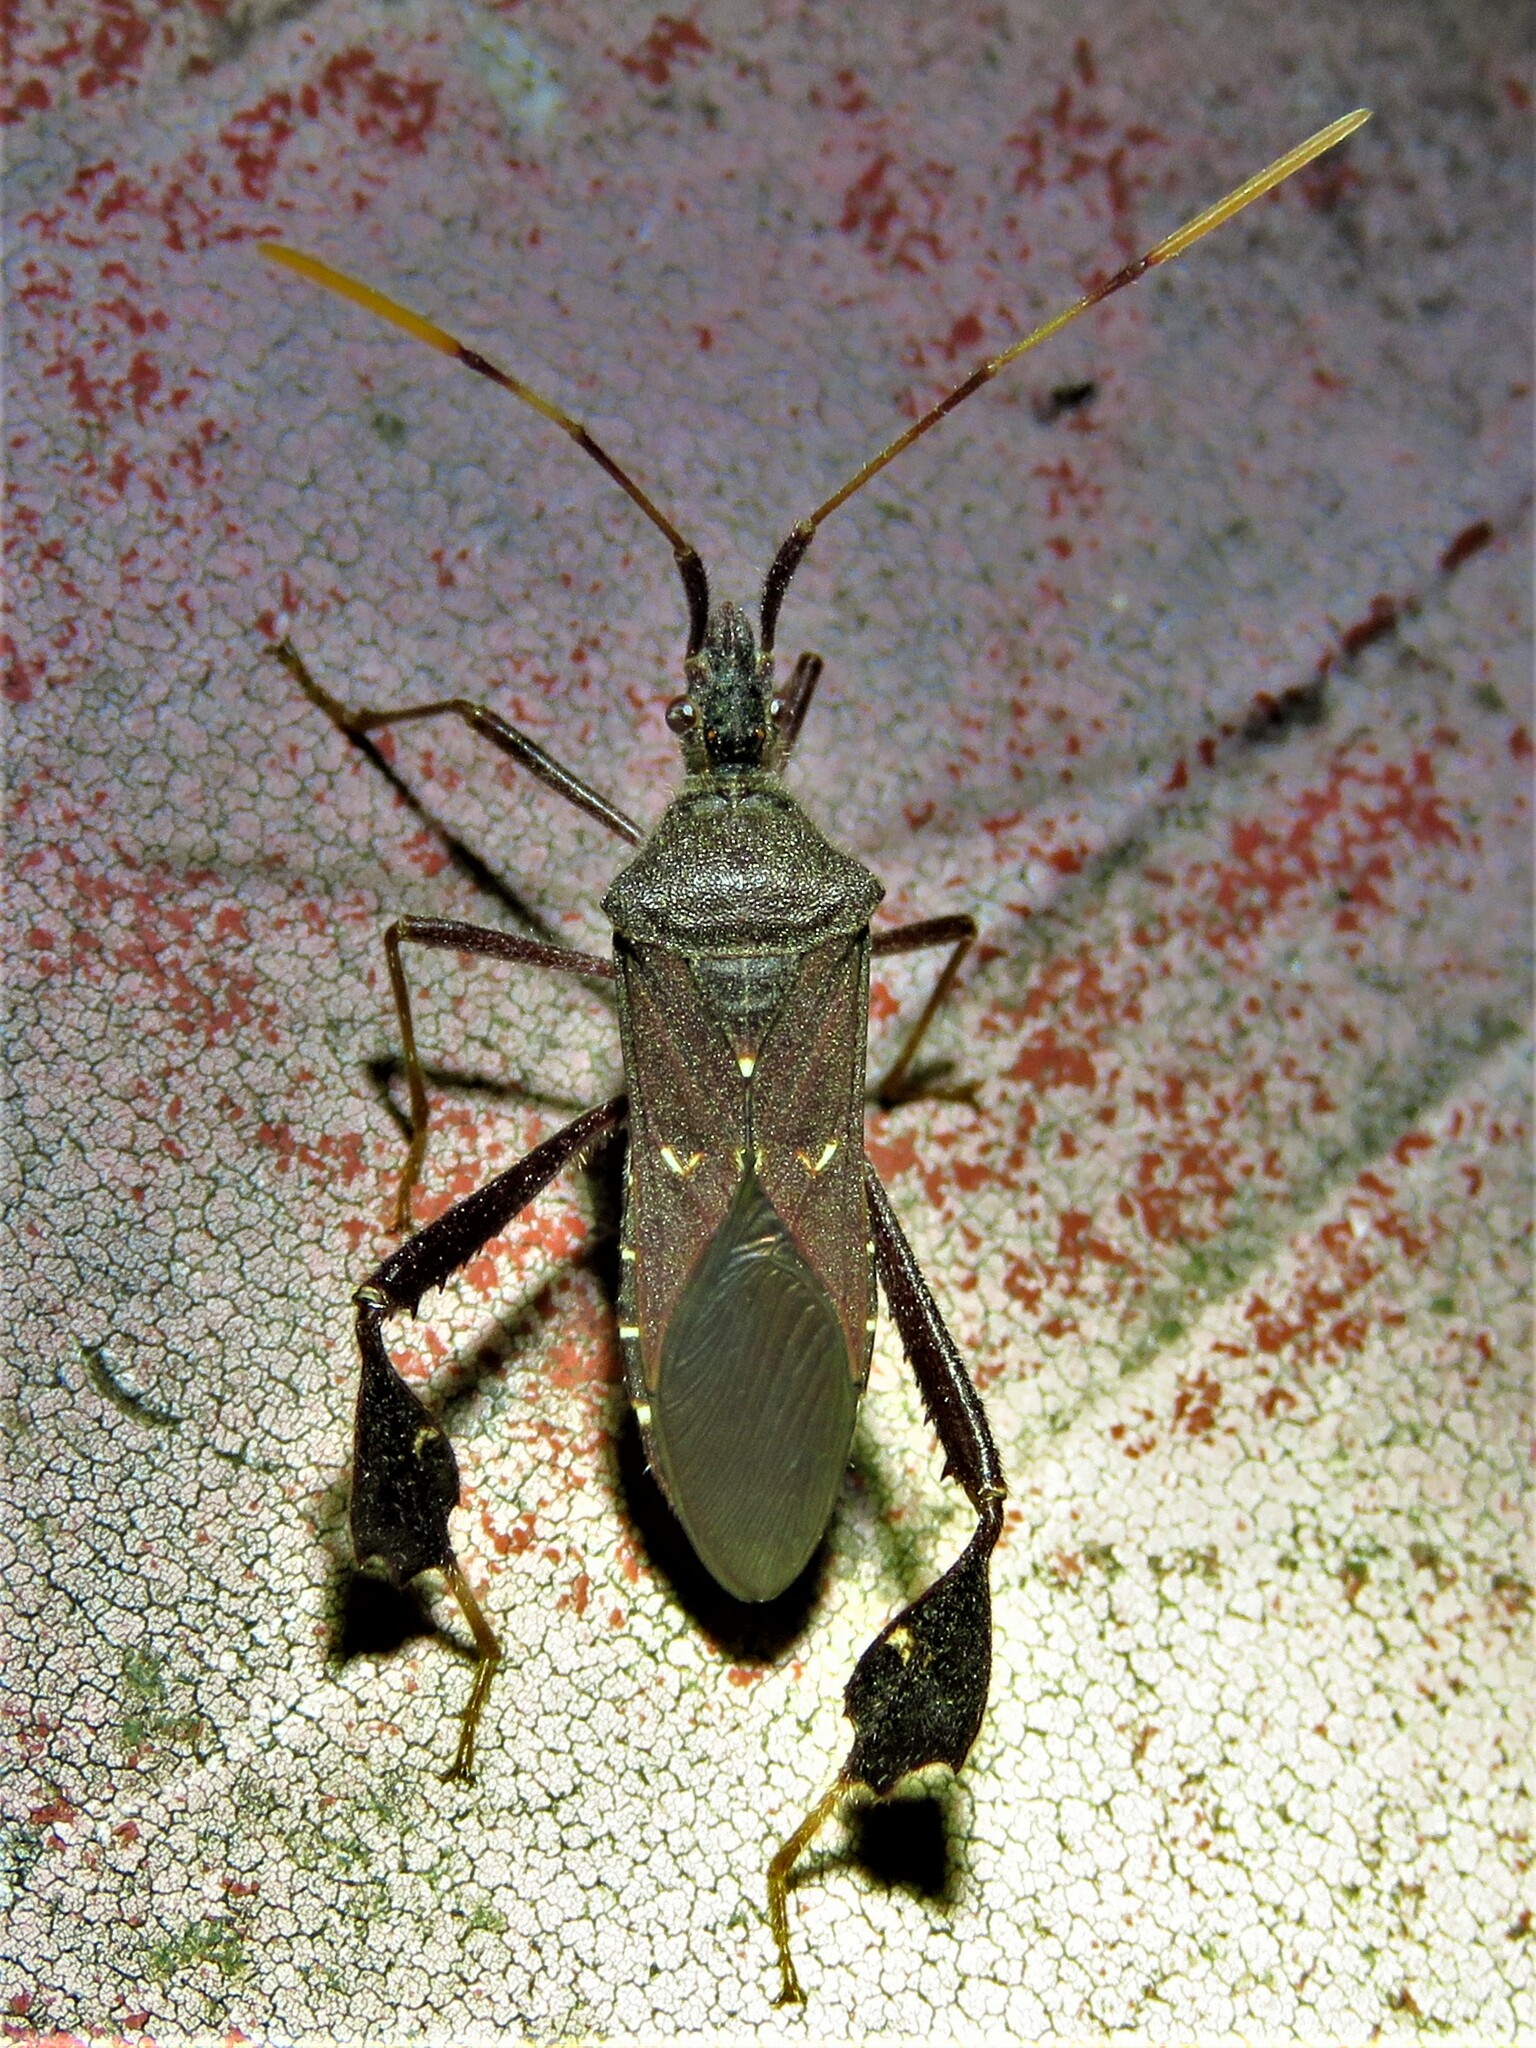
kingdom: Animalia
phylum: Arthropoda
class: Insecta
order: Hemiptera
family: Coreidae
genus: Leptoglossus
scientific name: Leptoglossus oppositus
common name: Northern leaf-footed bug
